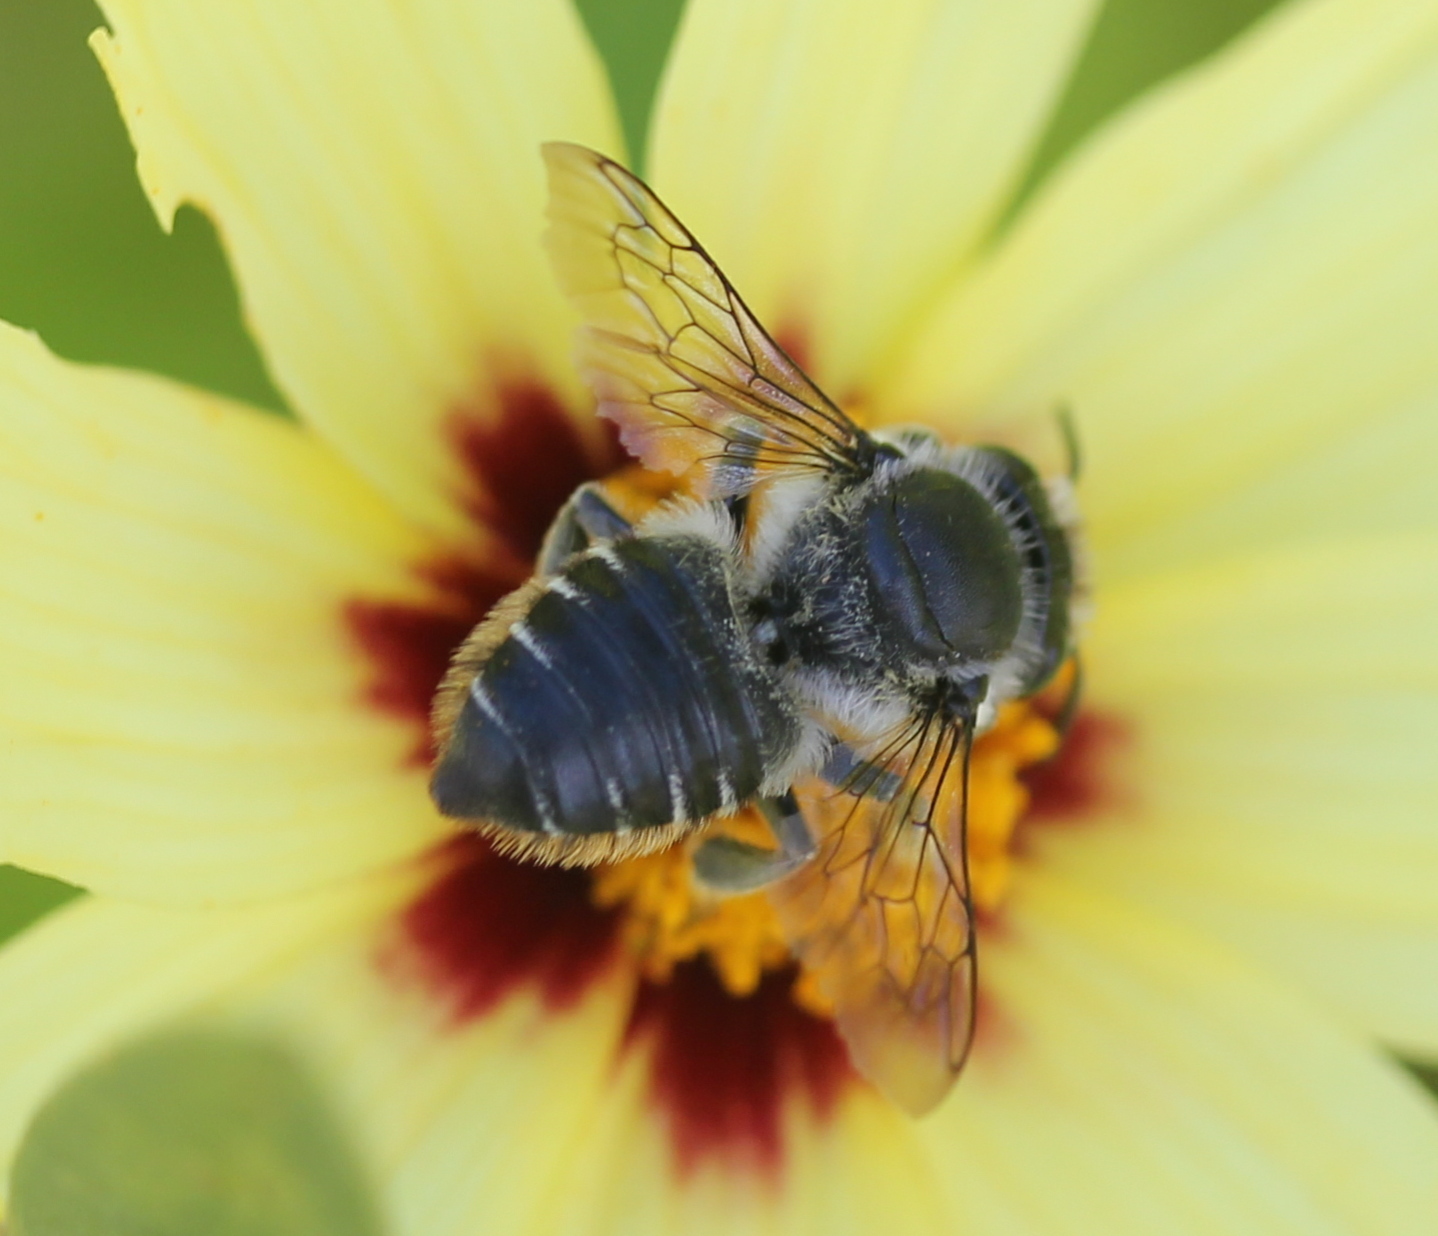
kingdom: Animalia
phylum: Arthropoda
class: Insecta
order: Hymenoptera
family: Megachilidae
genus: Megachile
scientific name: Megachile mendica
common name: Flat-tailed leafcutter
